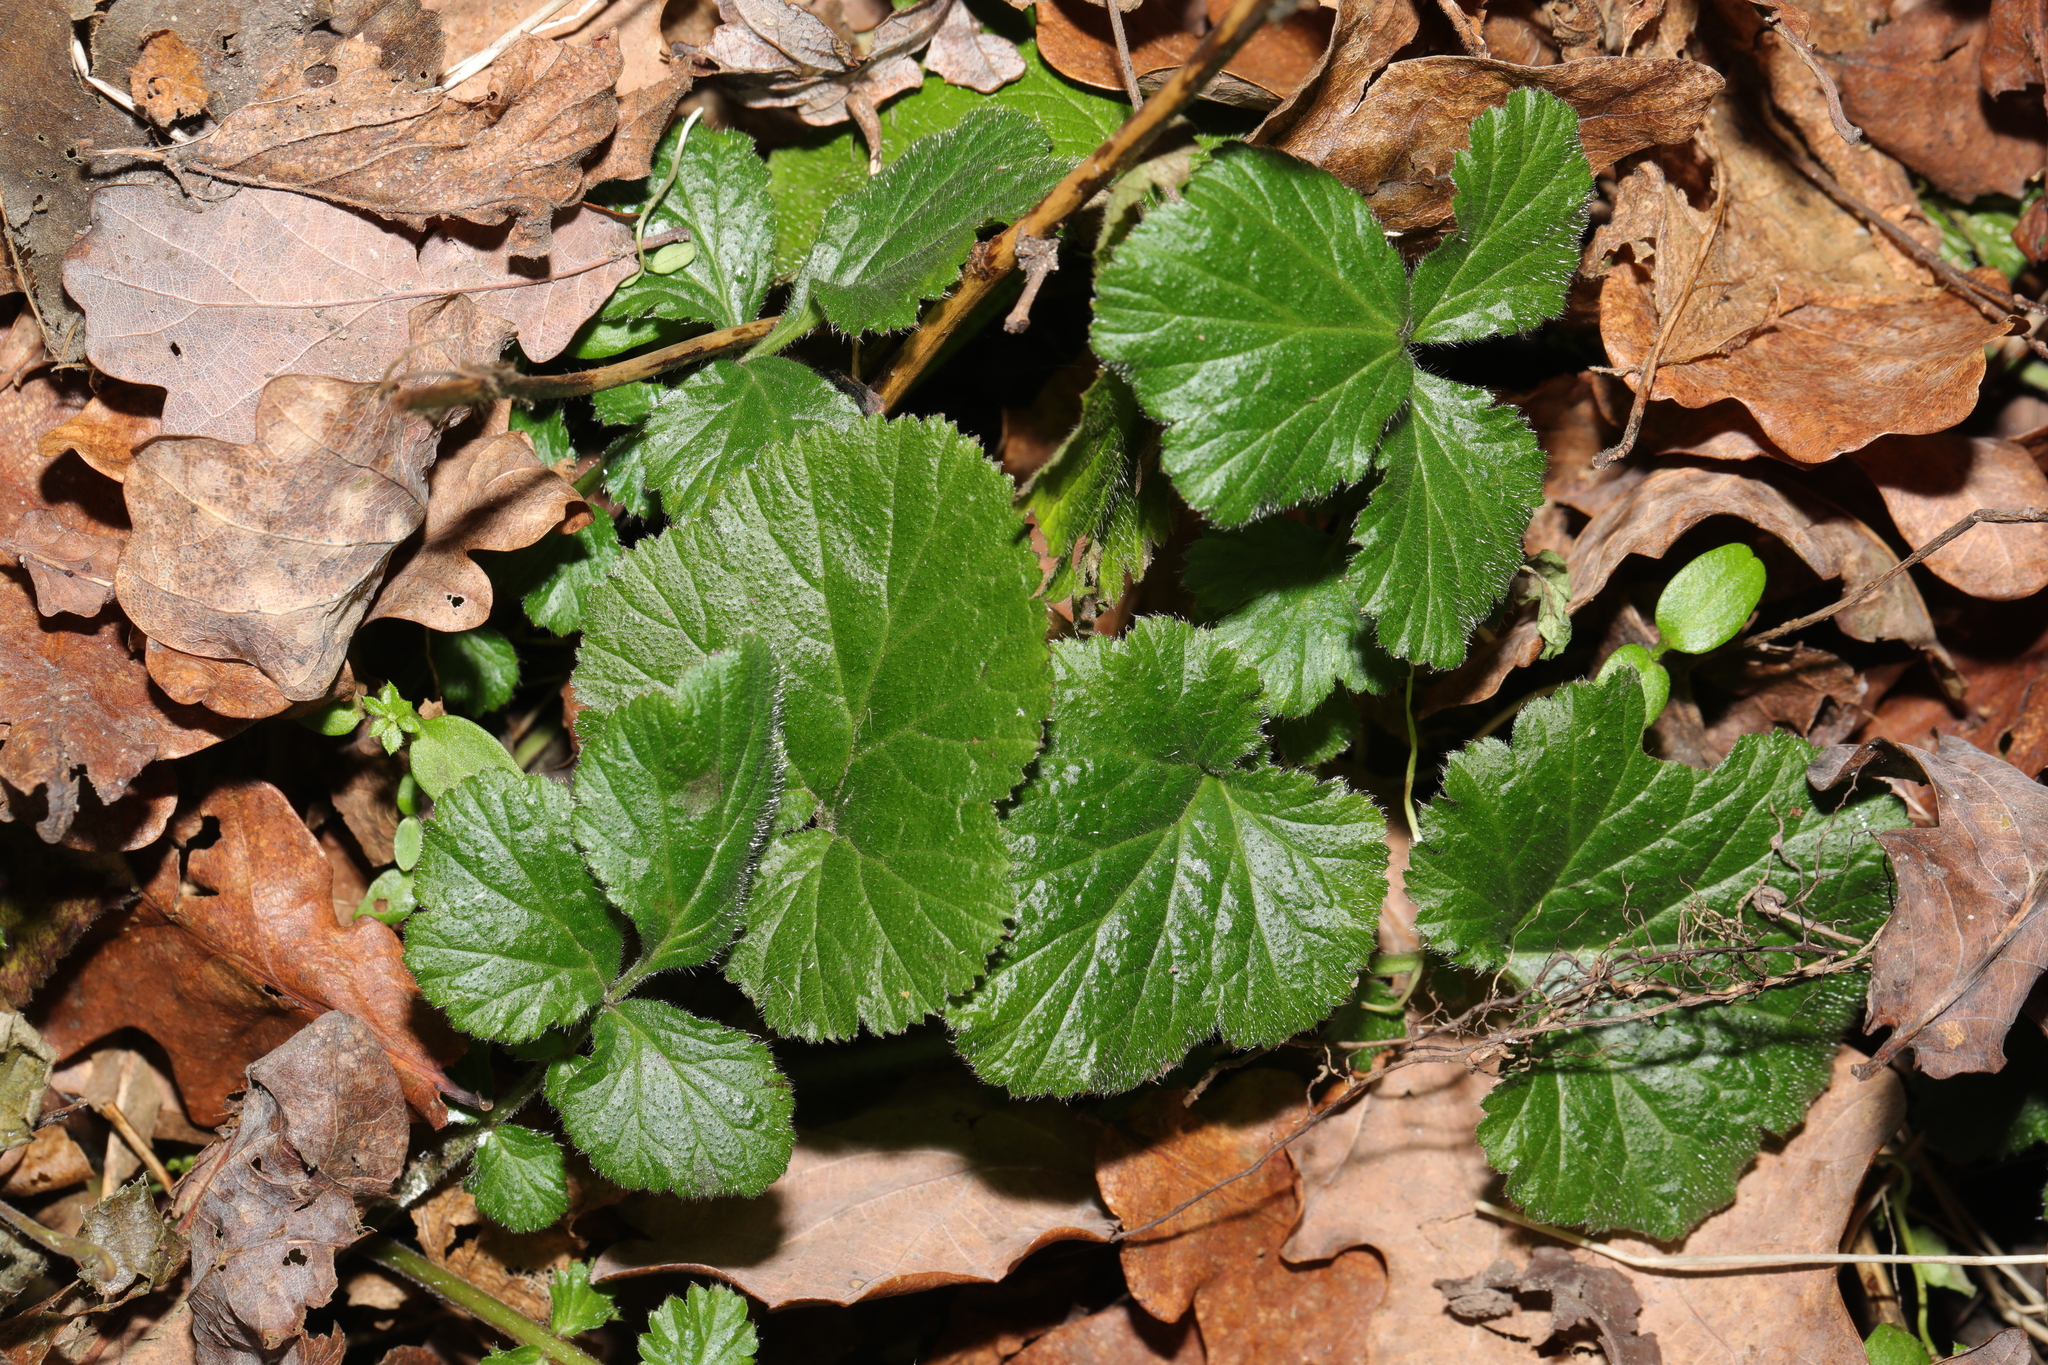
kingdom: Plantae
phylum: Tracheophyta
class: Magnoliopsida
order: Rosales
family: Rosaceae
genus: Geum
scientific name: Geum urbanum
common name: Wood avens
